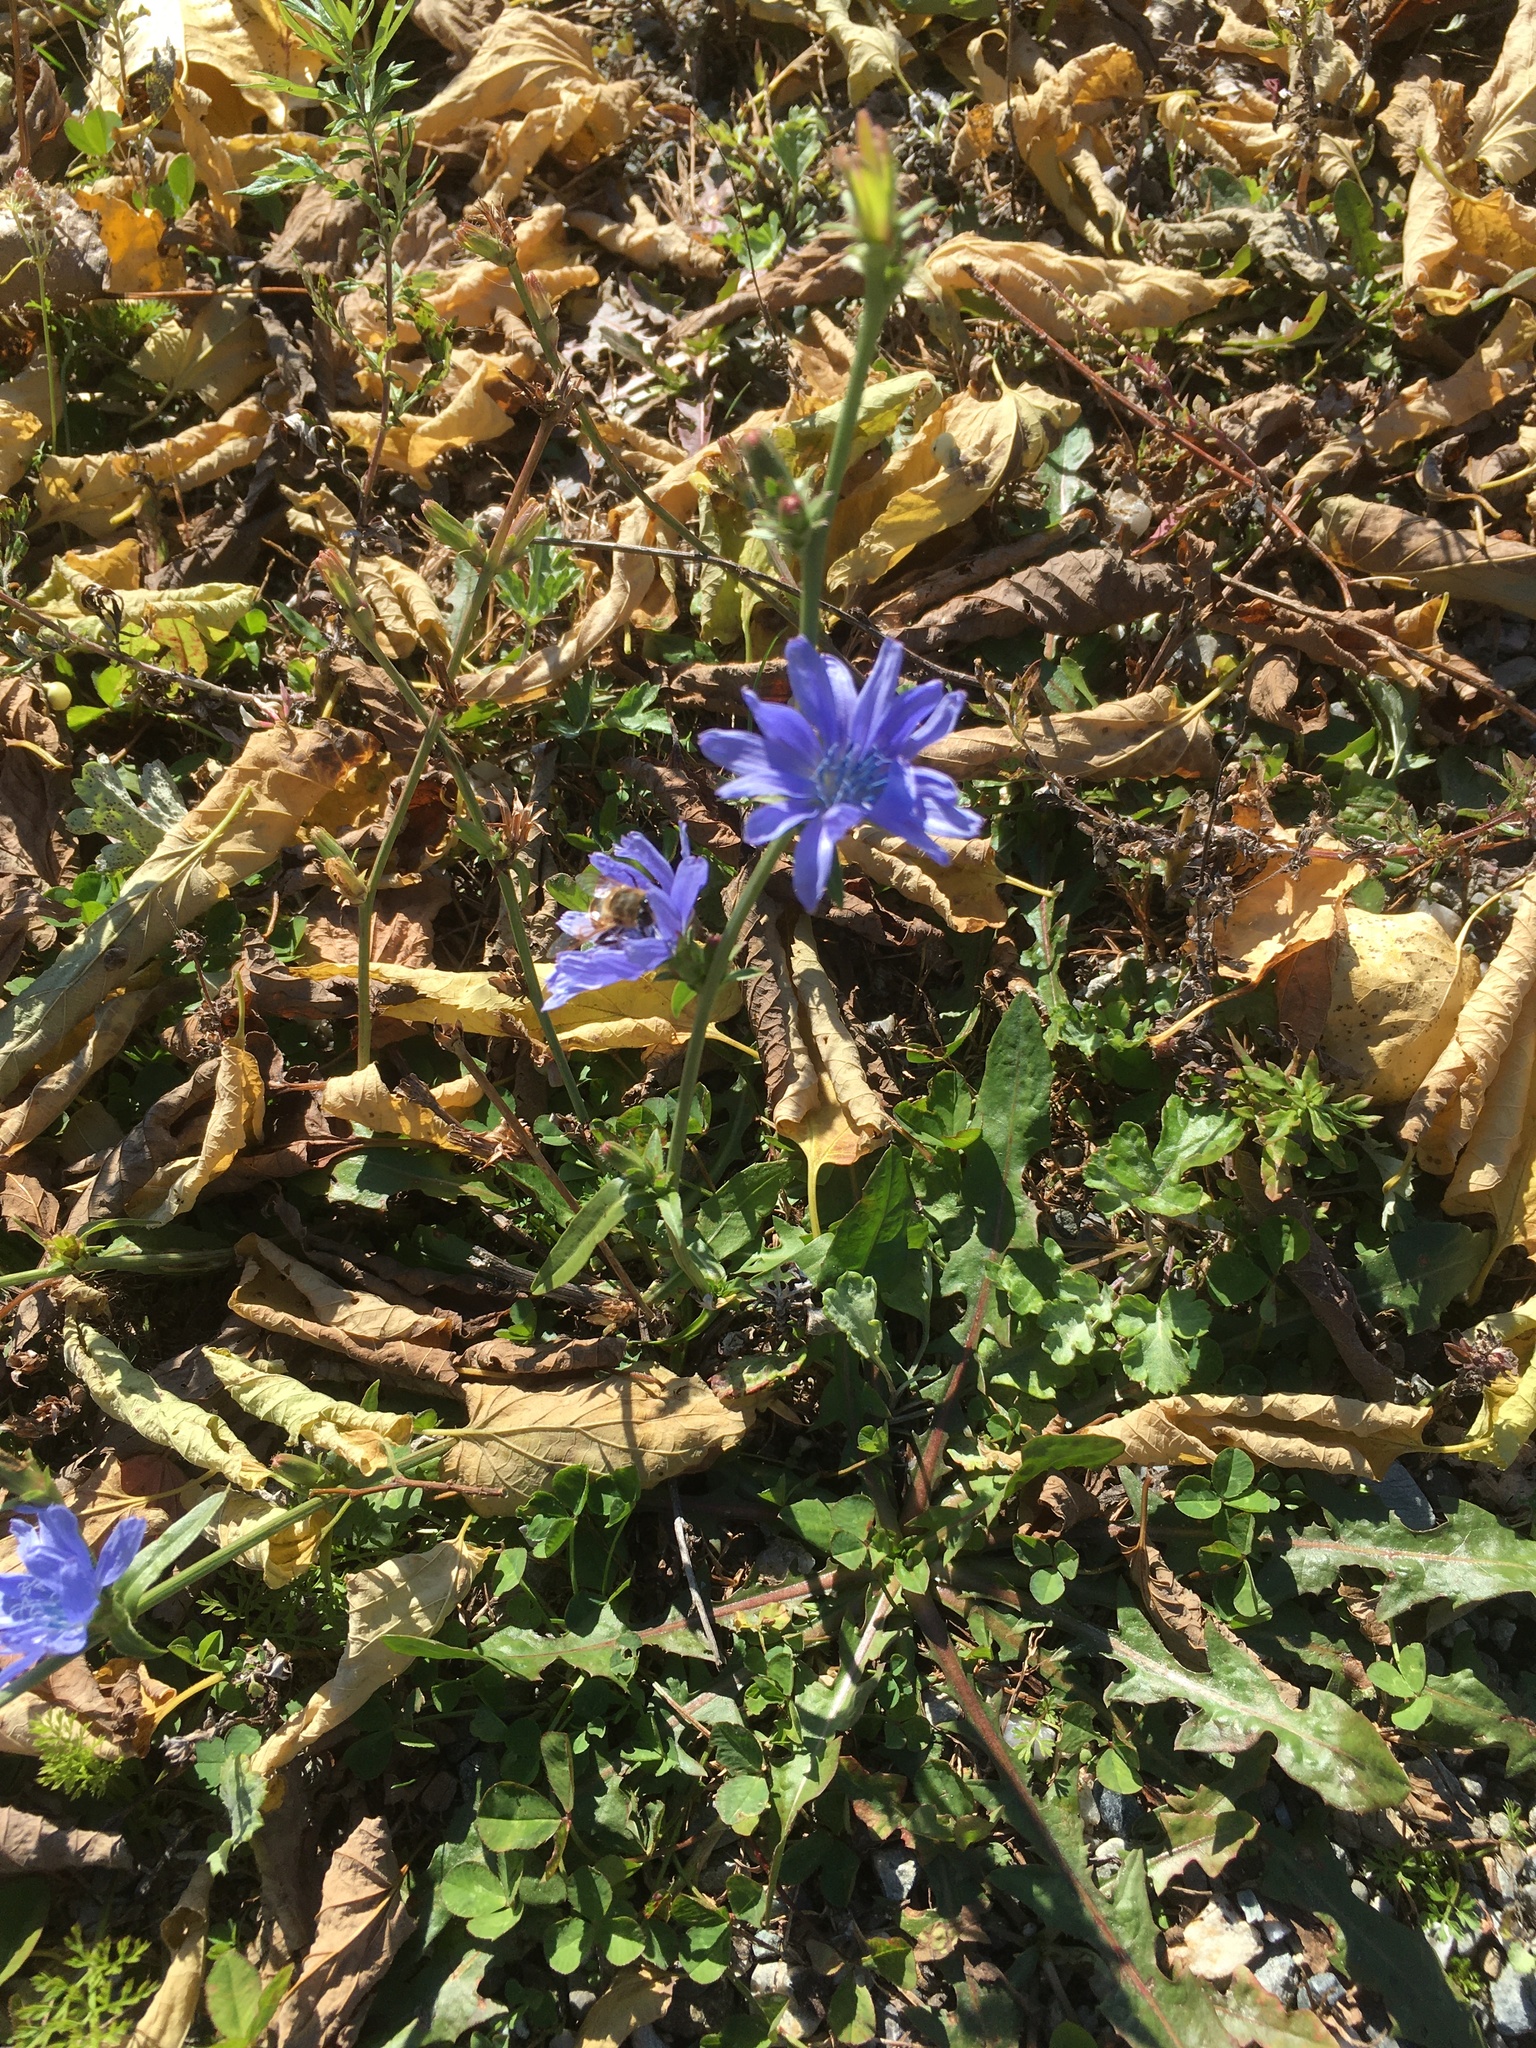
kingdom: Plantae
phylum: Tracheophyta
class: Magnoliopsida
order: Asterales
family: Asteraceae
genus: Cichorium
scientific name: Cichorium intybus
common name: Chicory
